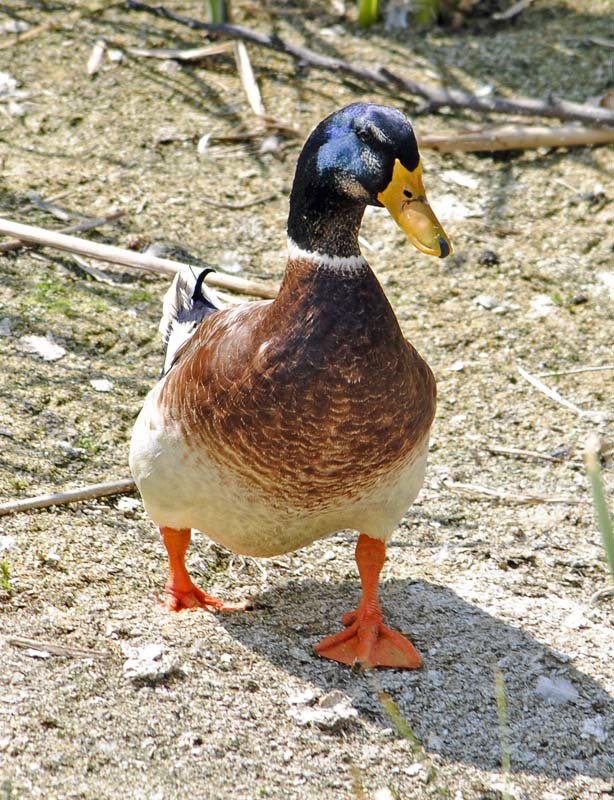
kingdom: Animalia
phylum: Chordata
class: Aves
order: Anseriformes
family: Anatidae
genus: Anas
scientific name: Anas platyrhynchos
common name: Mallard
